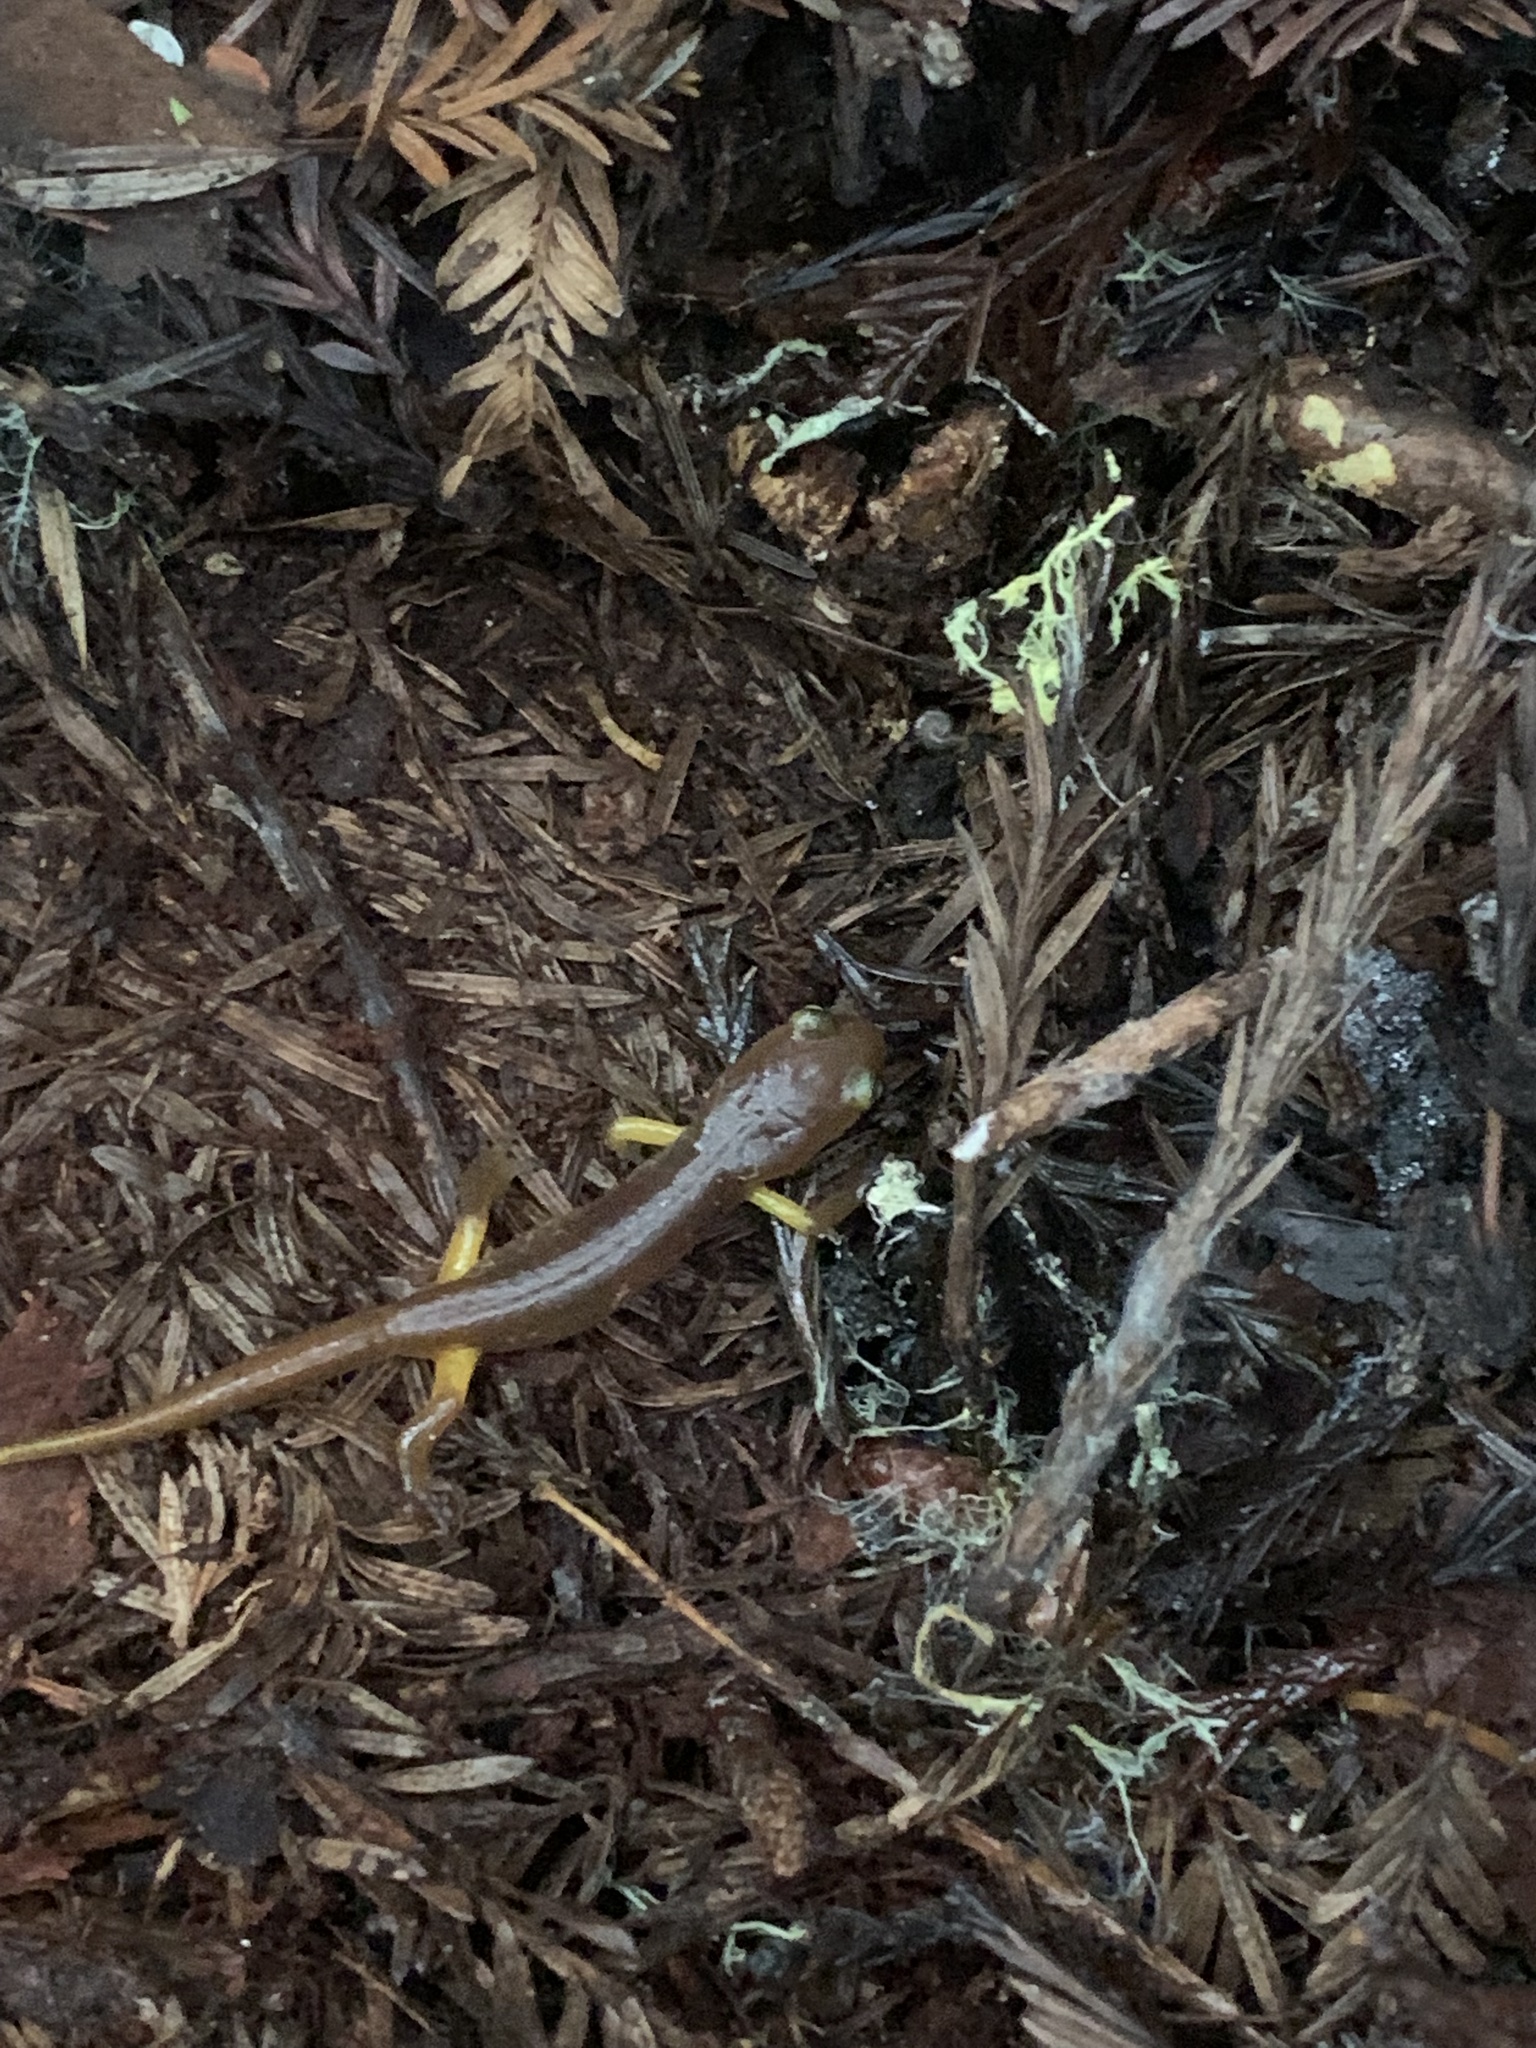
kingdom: Animalia
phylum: Chordata
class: Amphibia
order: Caudata
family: Plethodontidae
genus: Ensatina
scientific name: Ensatina eschscholtzii
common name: Ensatina
